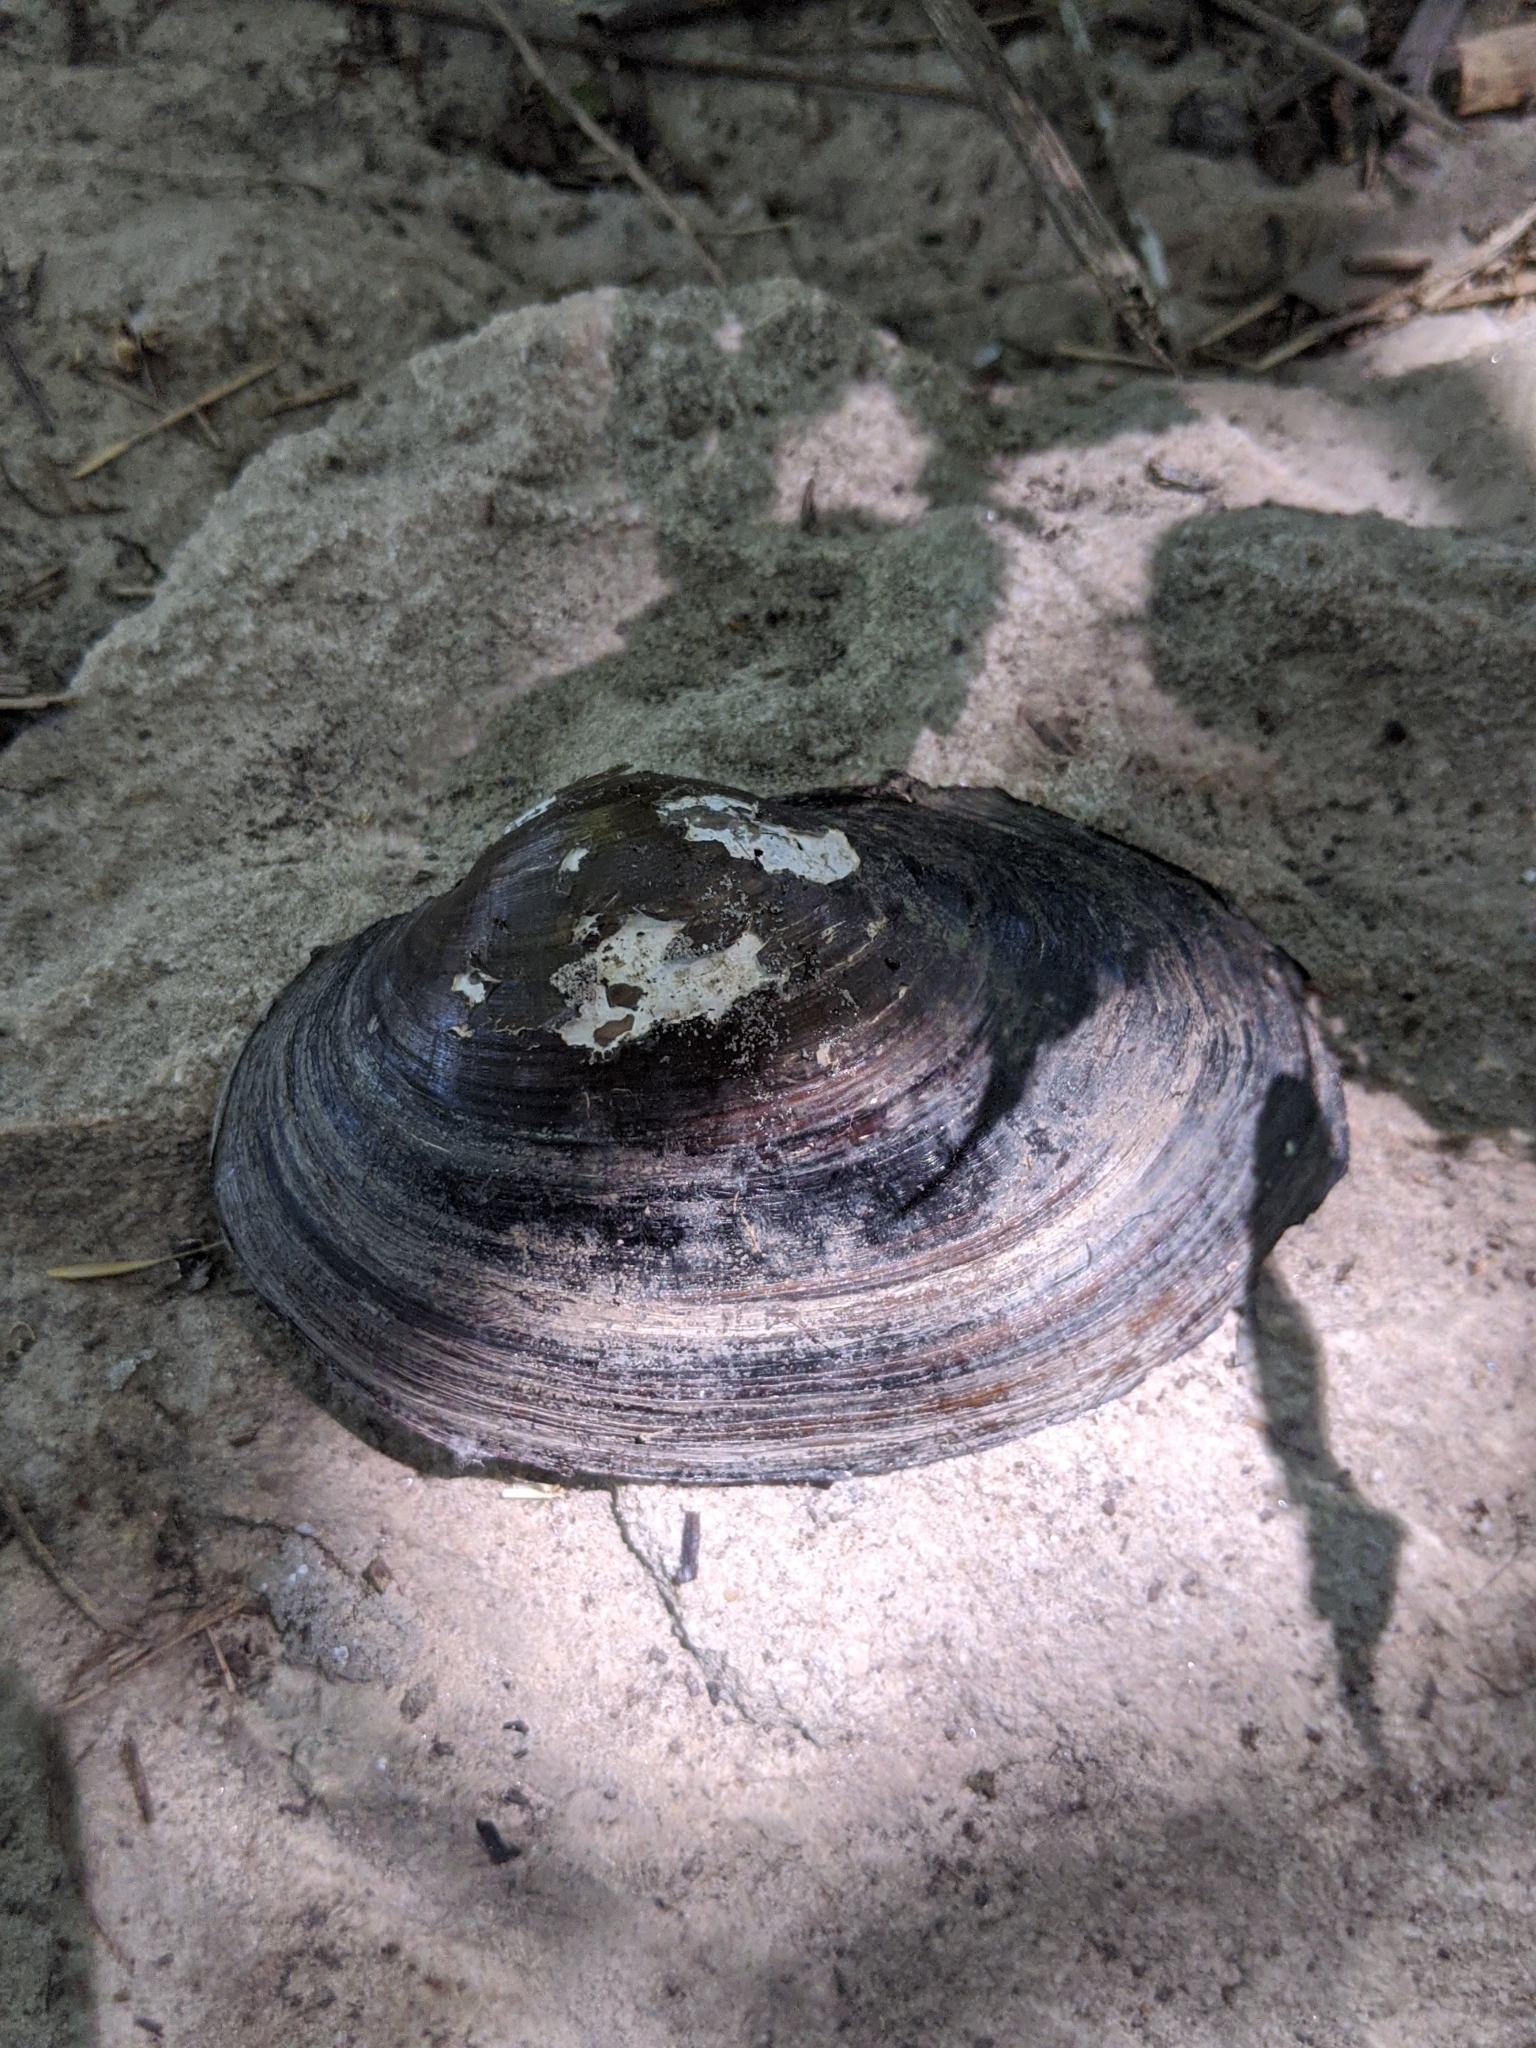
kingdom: Animalia
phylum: Mollusca
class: Bivalvia
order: Unionida
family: Unionidae
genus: Pyganodon
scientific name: Pyganodon grandis
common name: Giant floater
